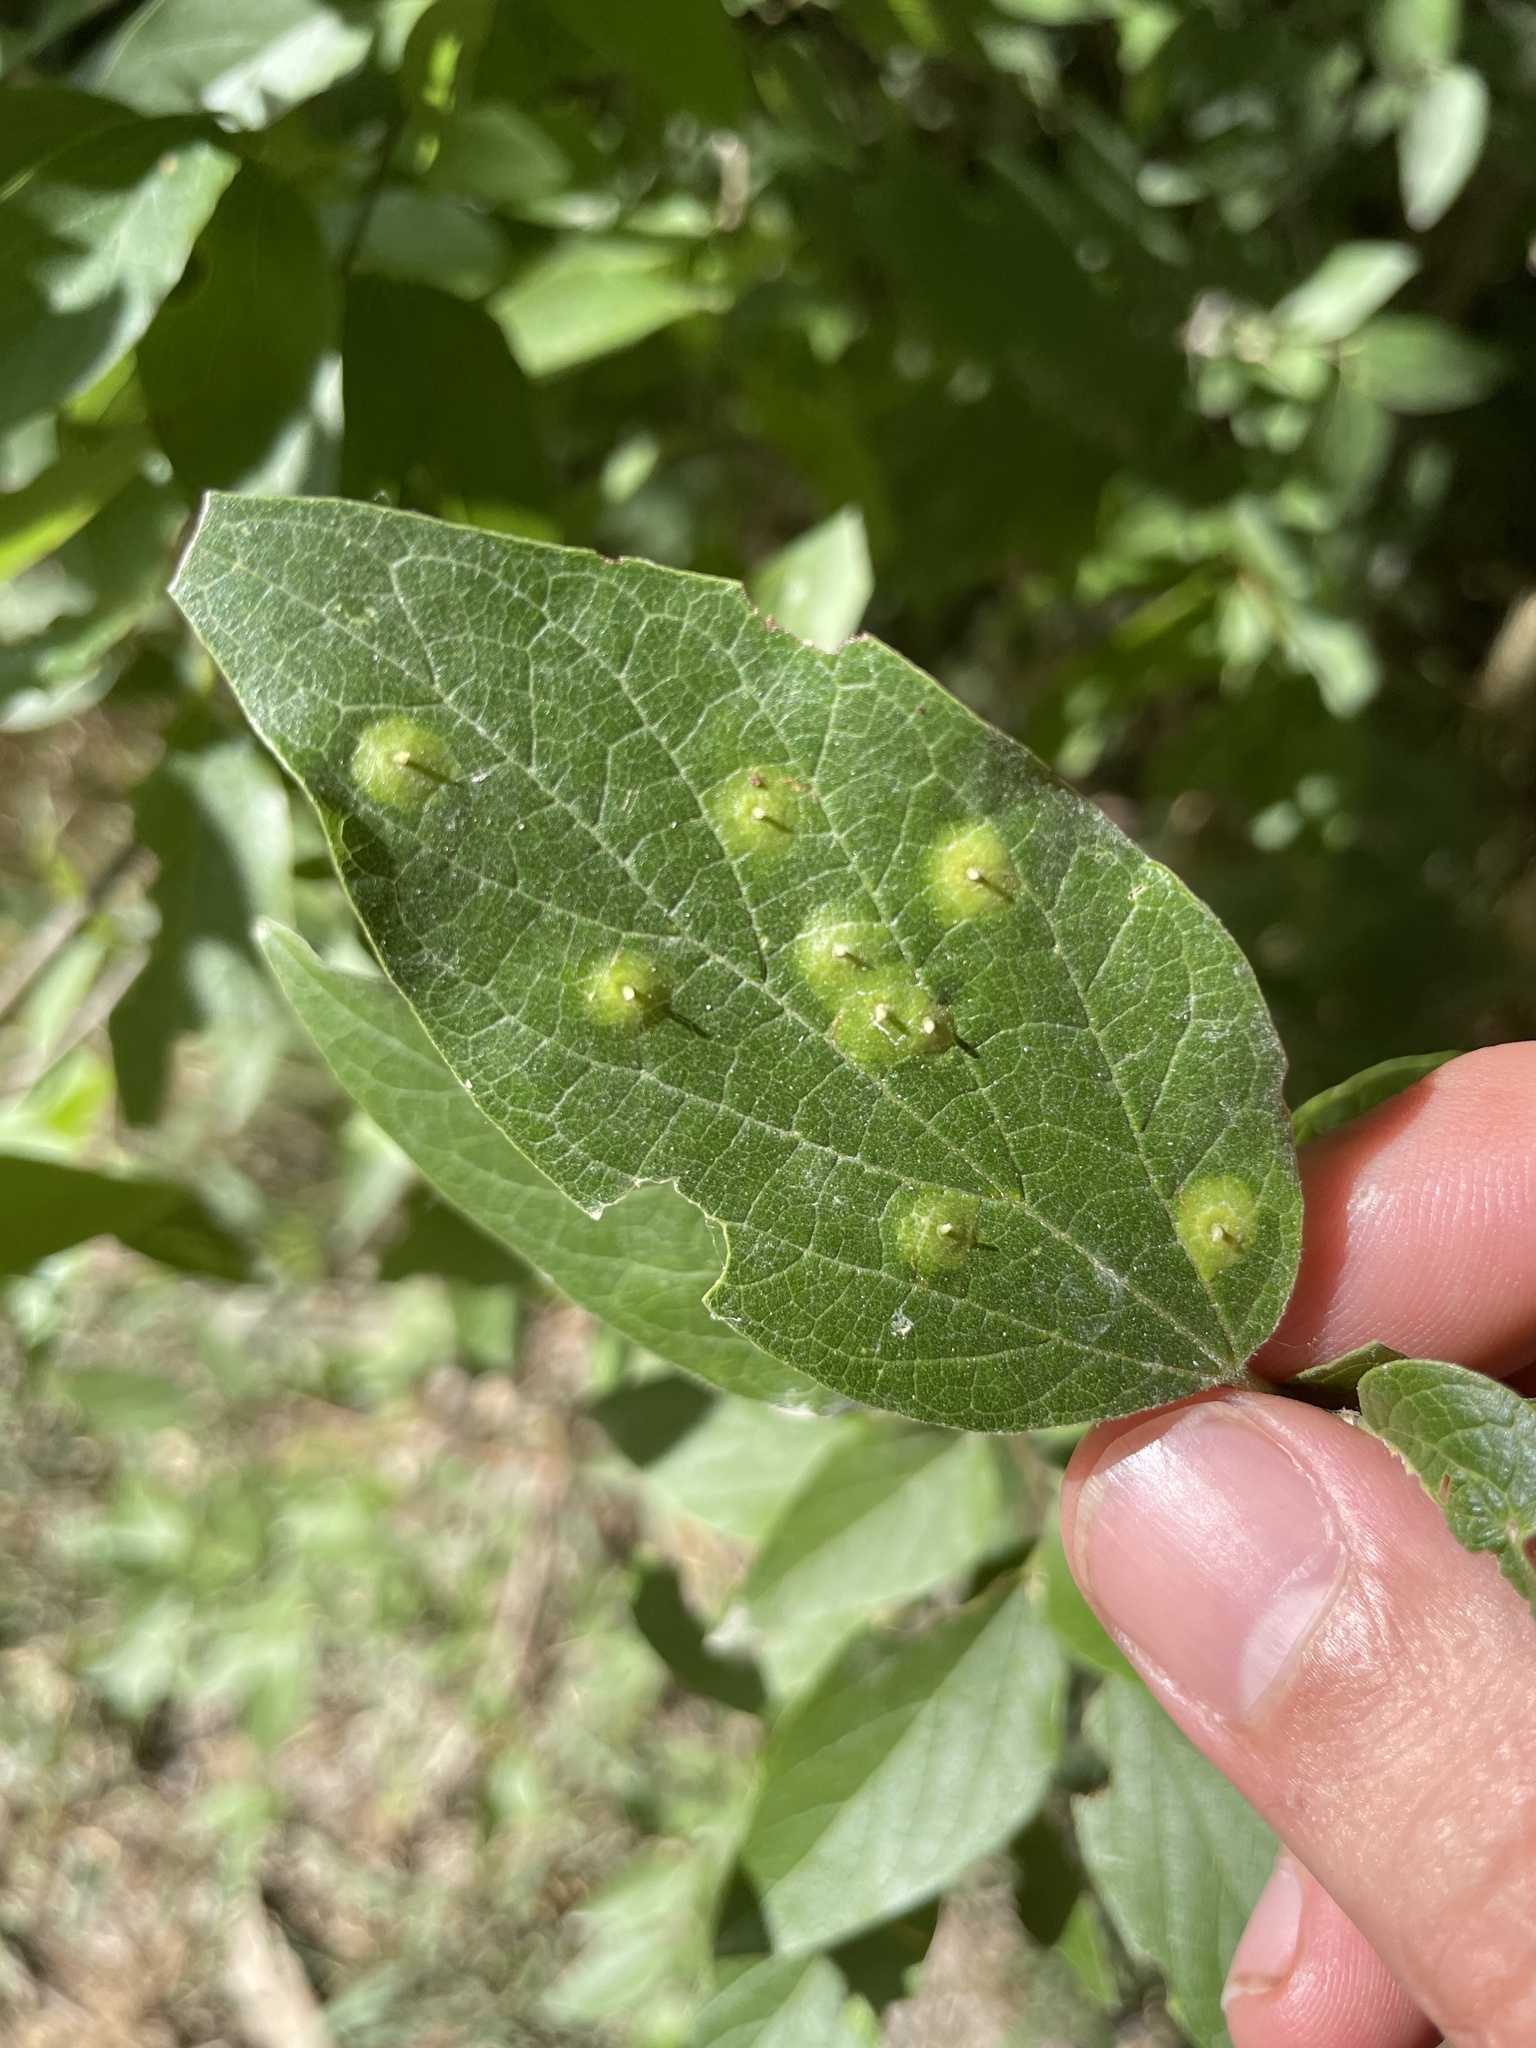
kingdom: Animalia
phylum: Arthropoda
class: Insecta
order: Hemiptera
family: Aphalaridae
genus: Pachypsylla
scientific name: Pachypsylla celtidisasterisca
